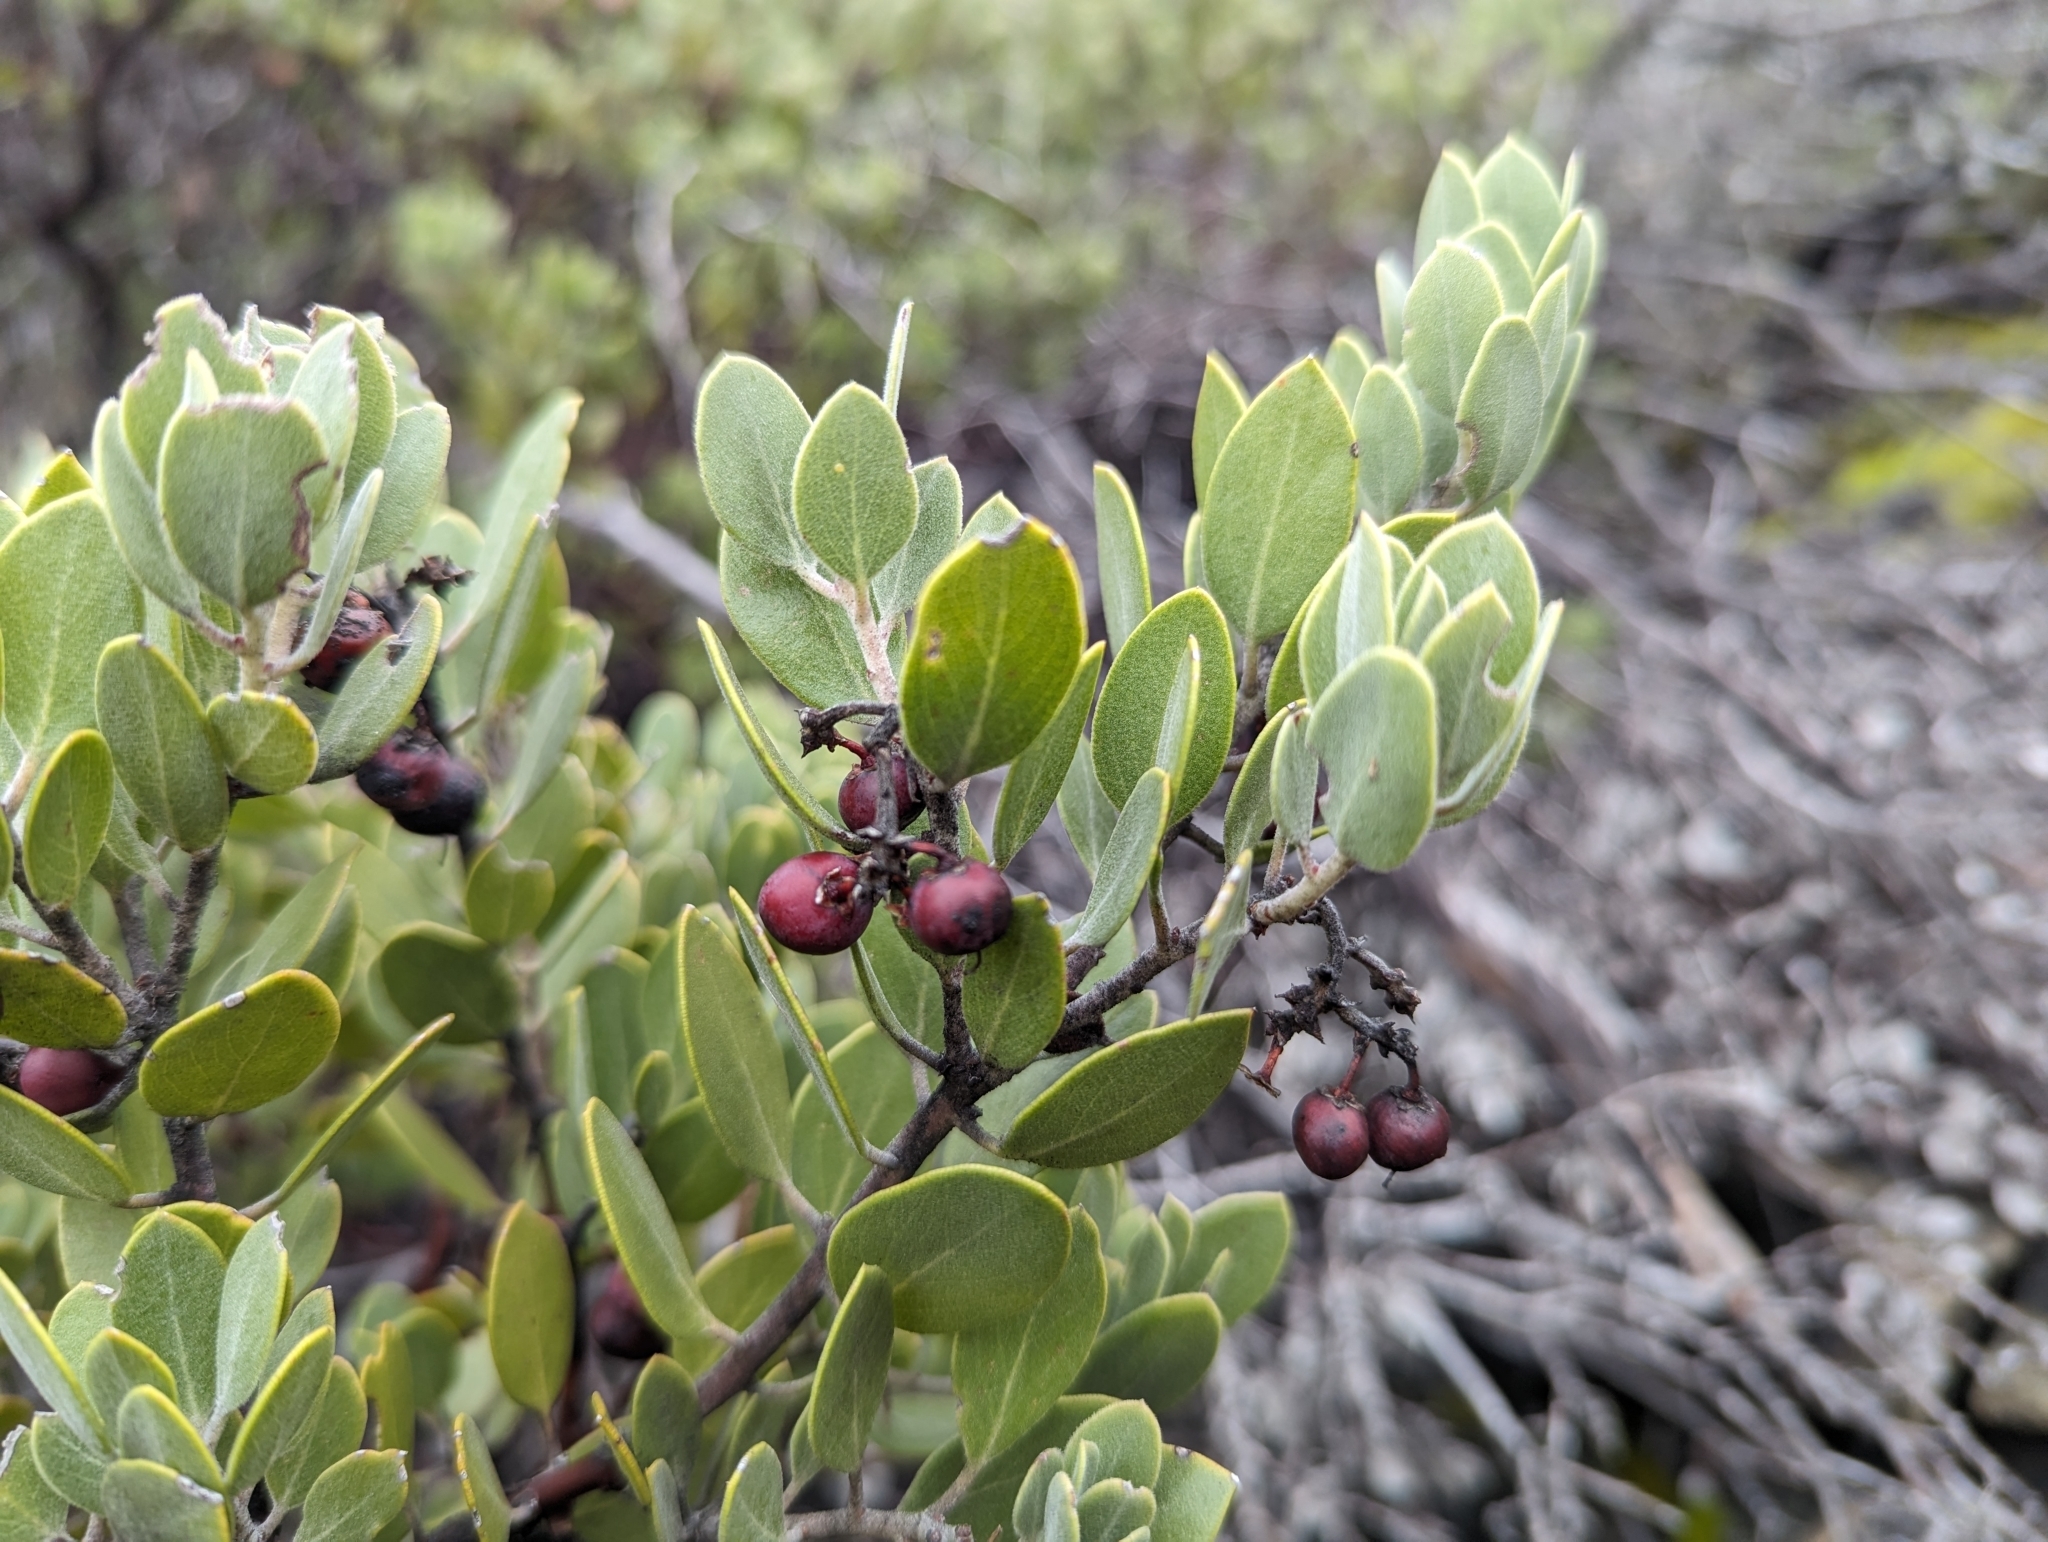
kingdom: Plantae
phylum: Tracheophyta
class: Magnoliopsida
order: Ericales
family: Ericaceae
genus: Arctostaphylos
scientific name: Arctostaphylos montana
